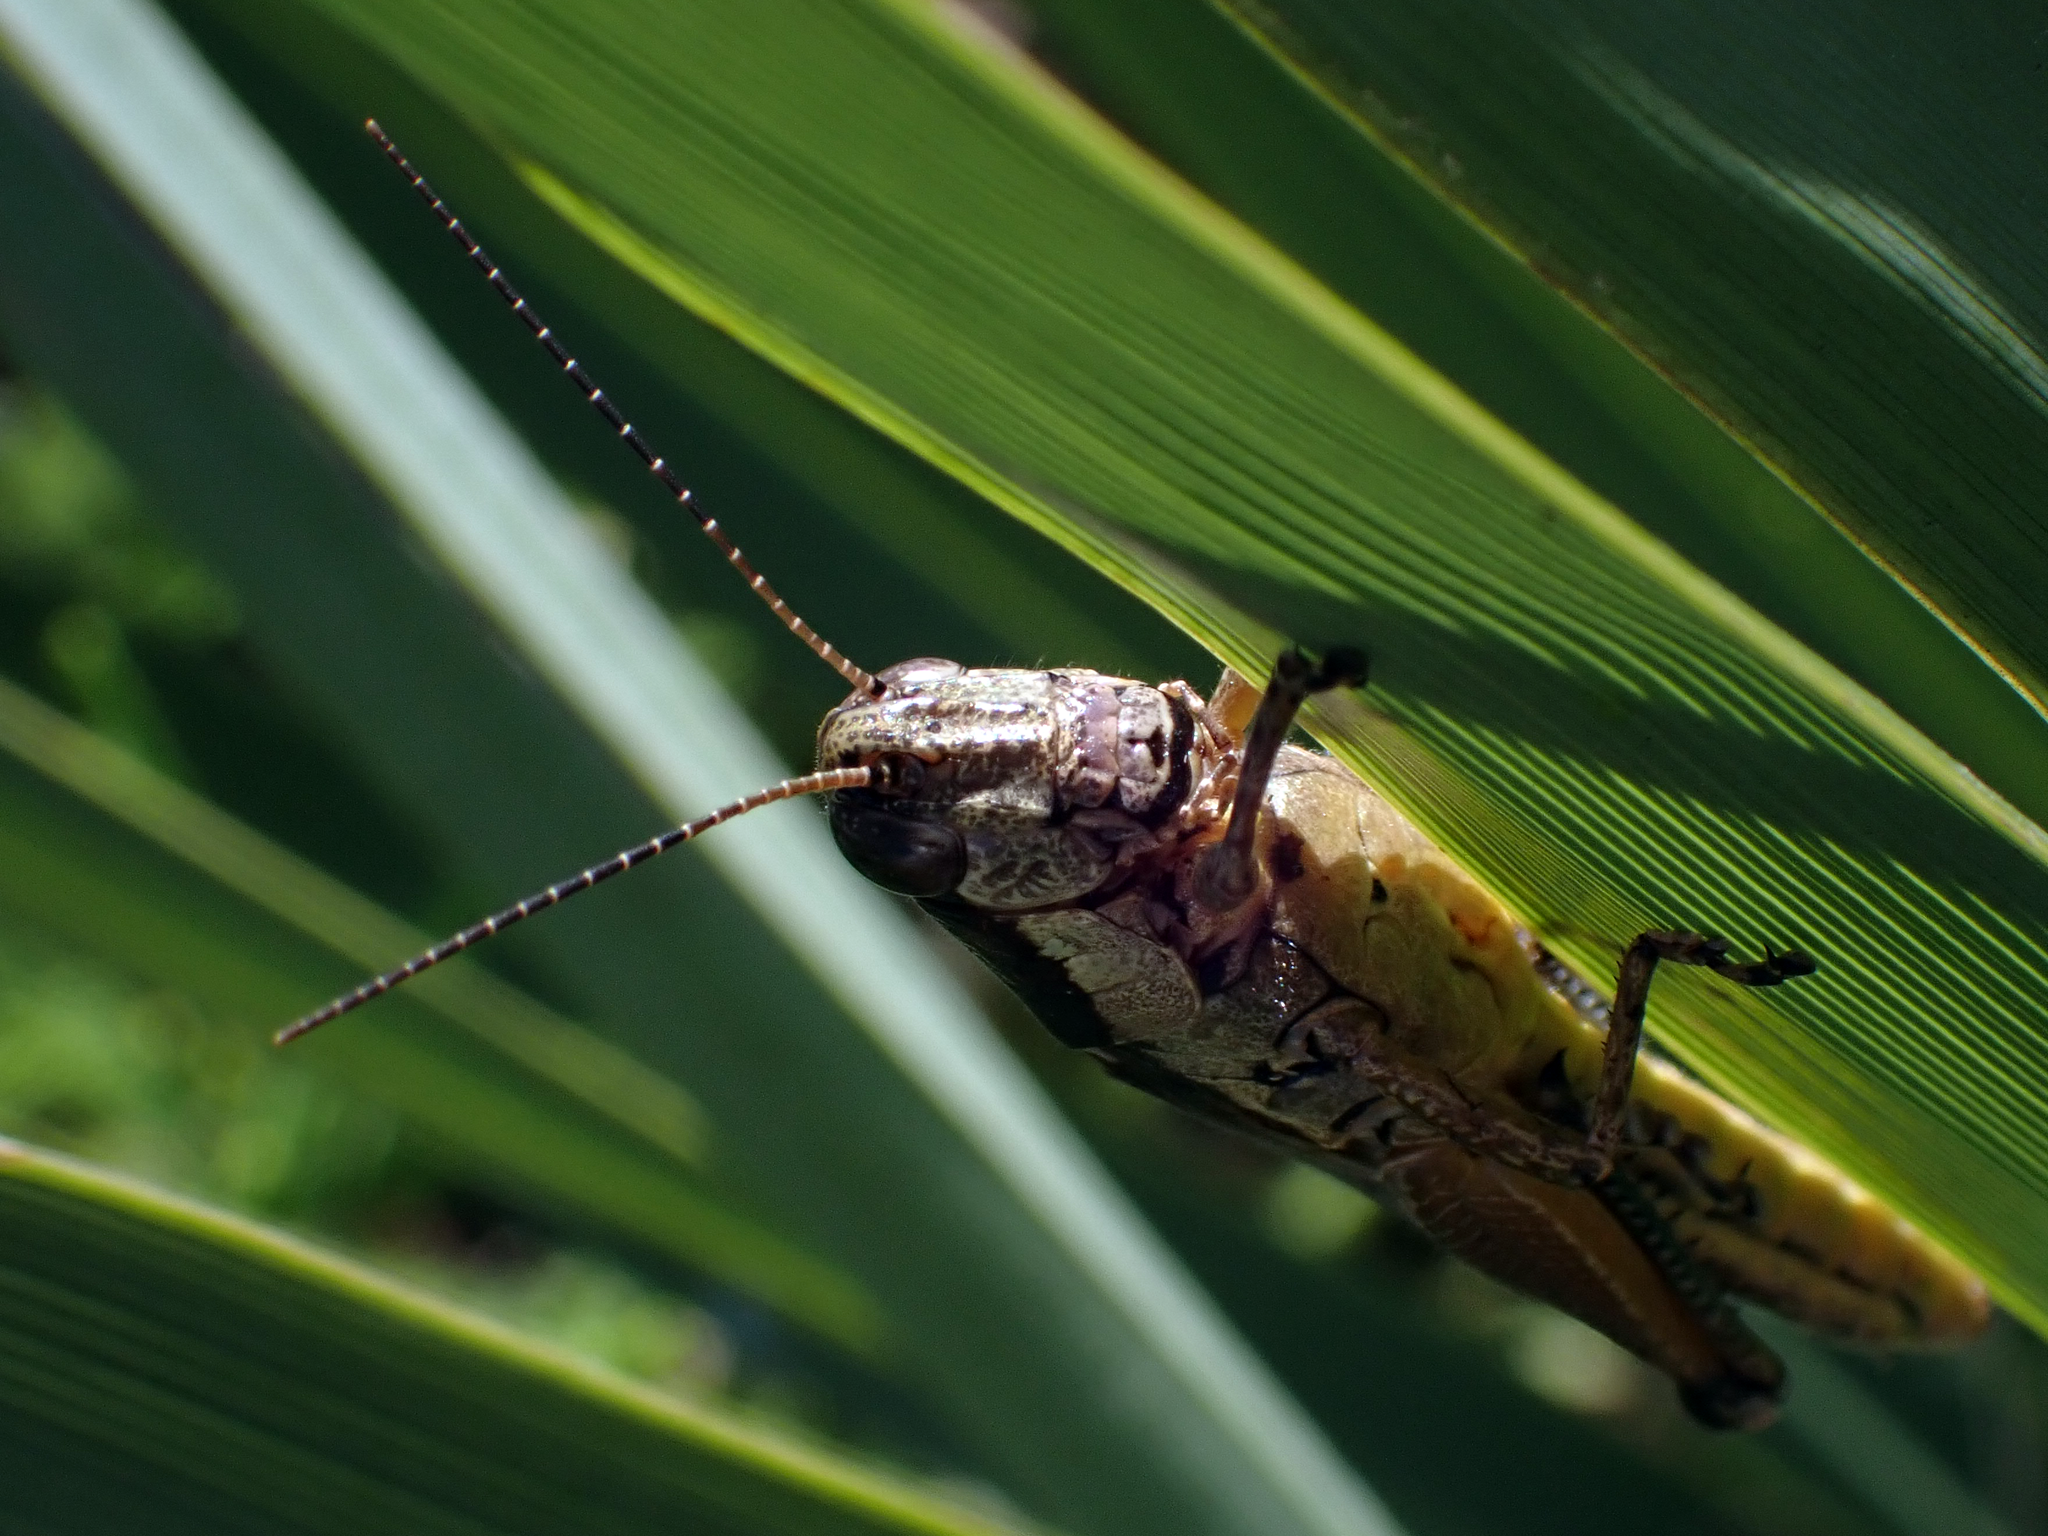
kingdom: Animalia
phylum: Arthropoda
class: Insecta
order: Orthoptera
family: Acrididae
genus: Paroxya
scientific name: Paroxya clavuligera
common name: Olive-green swamp grasshopper
